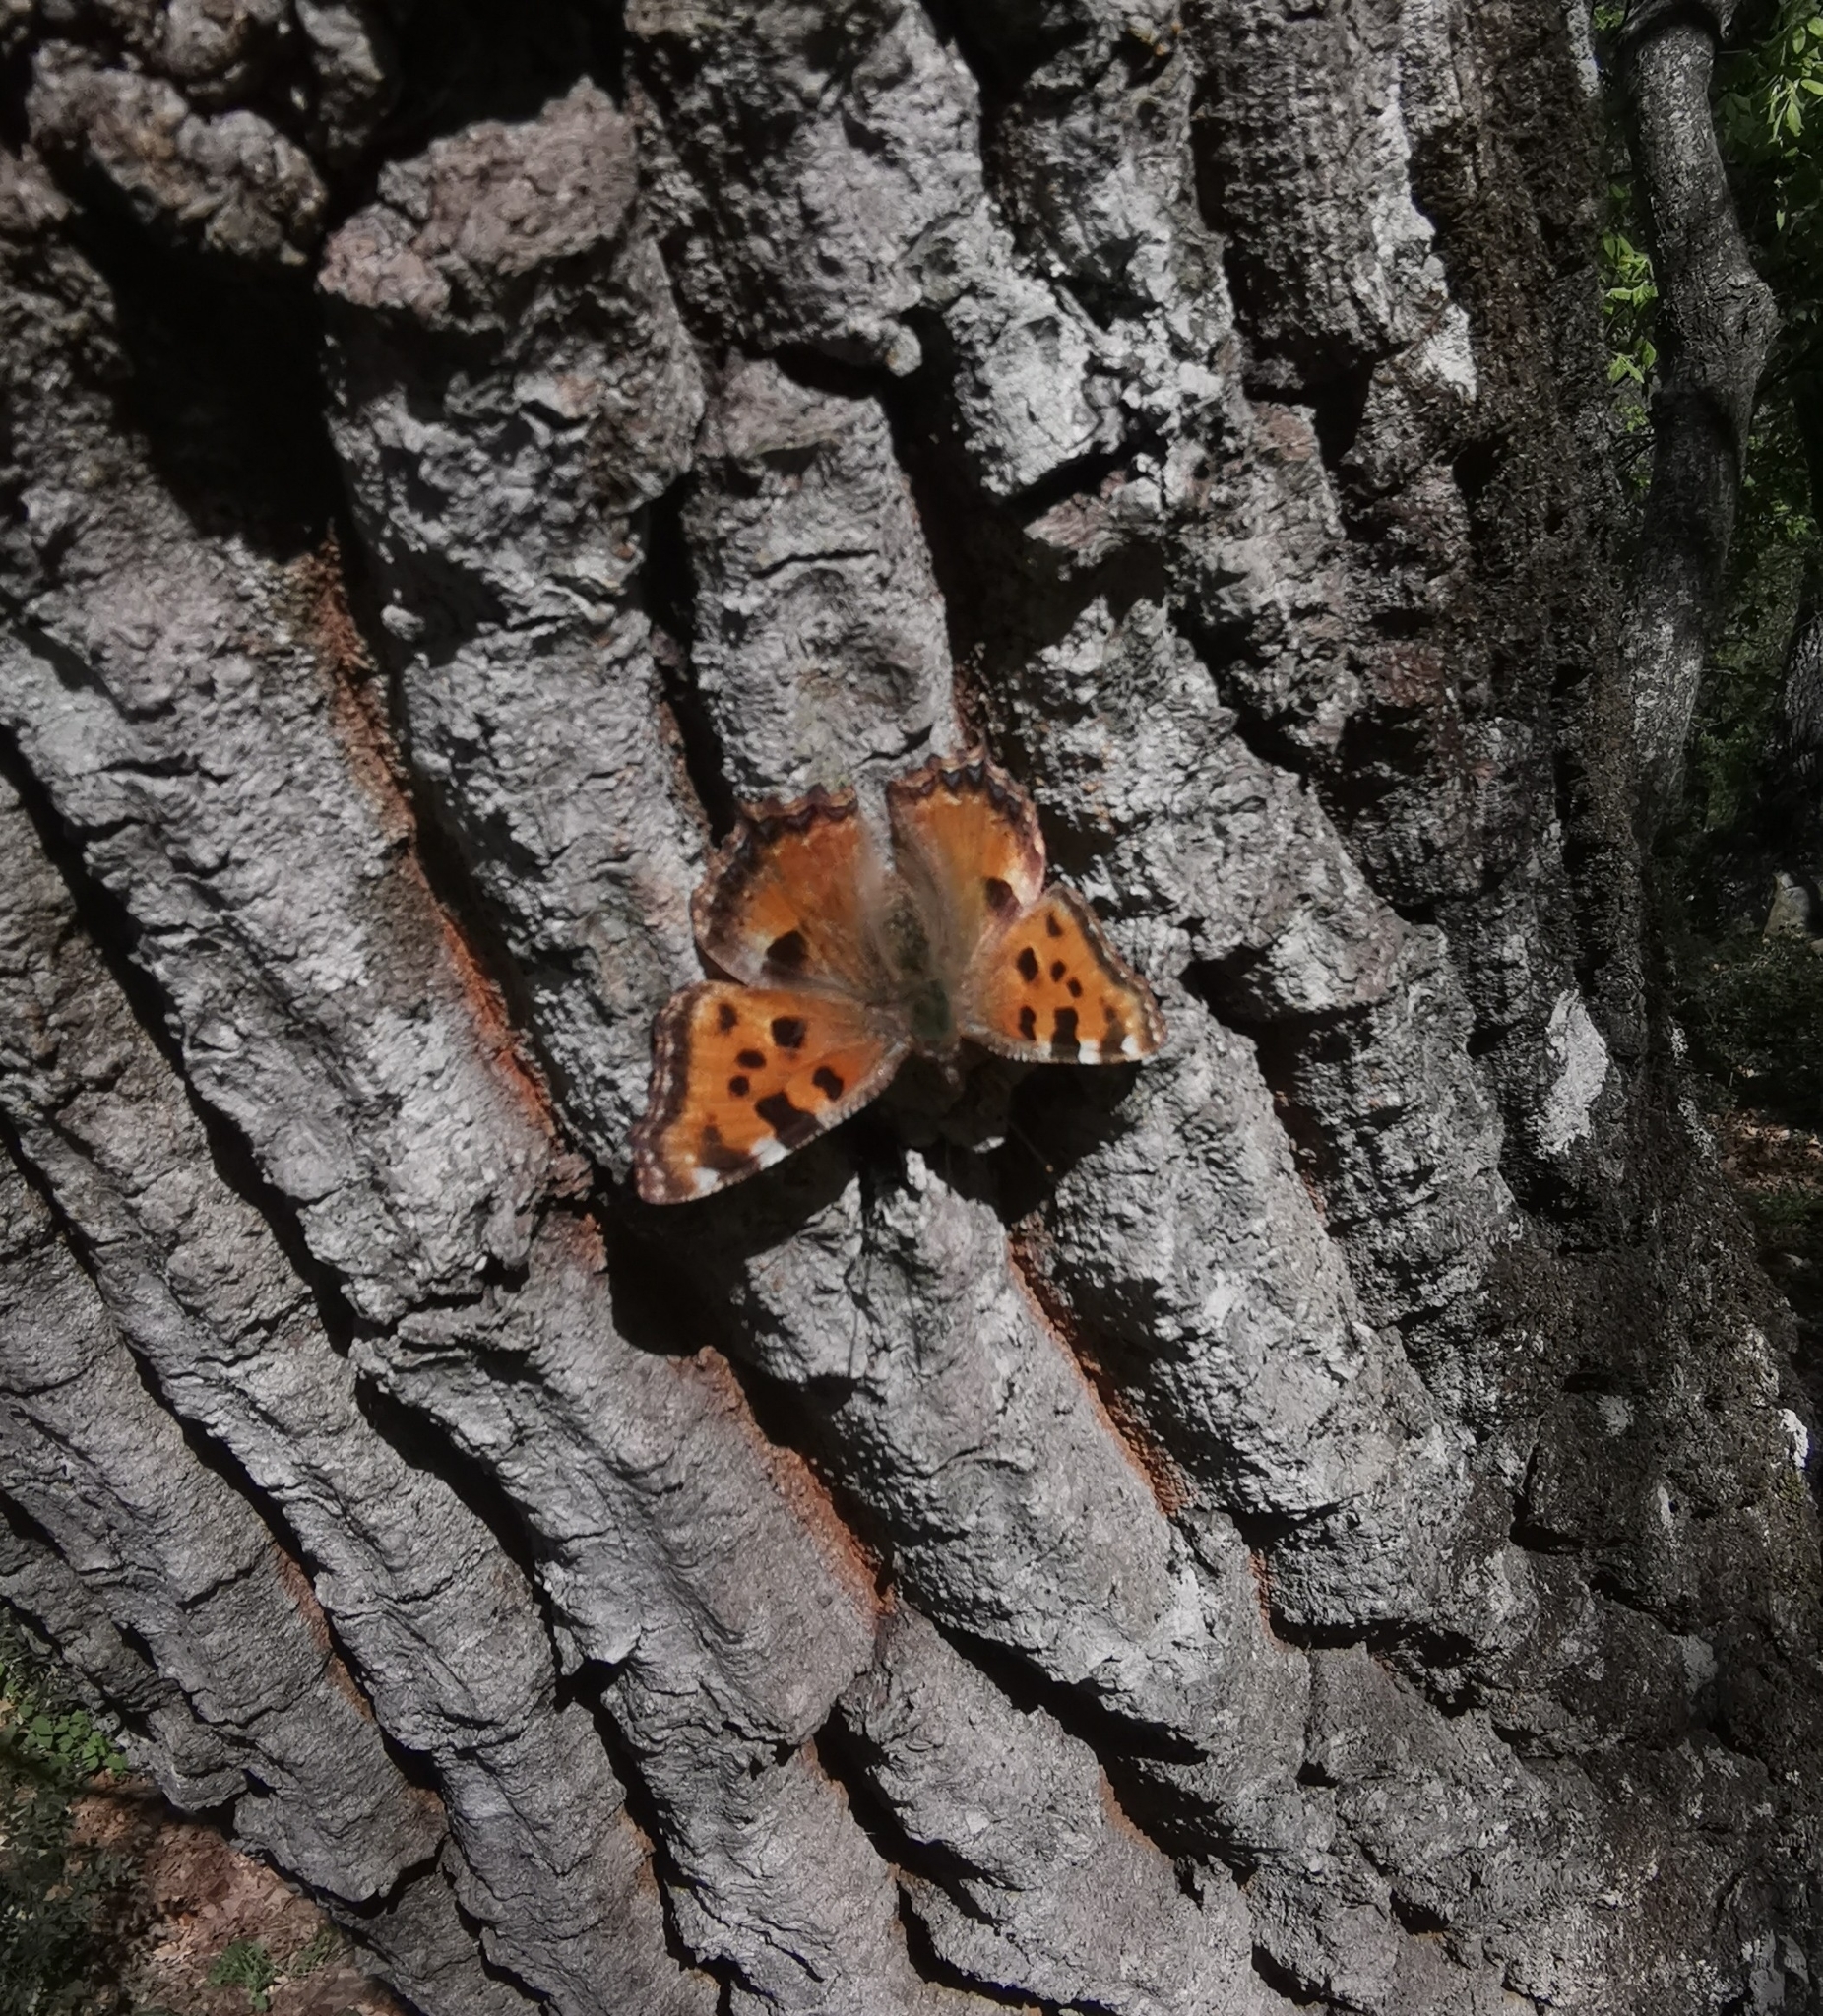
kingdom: Animalia
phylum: Arthropoda
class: Insecta
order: Lepidoptera
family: Nymphalidae
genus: Nymphalis
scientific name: Nymphalis polychloros
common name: Large tortoiseshell
